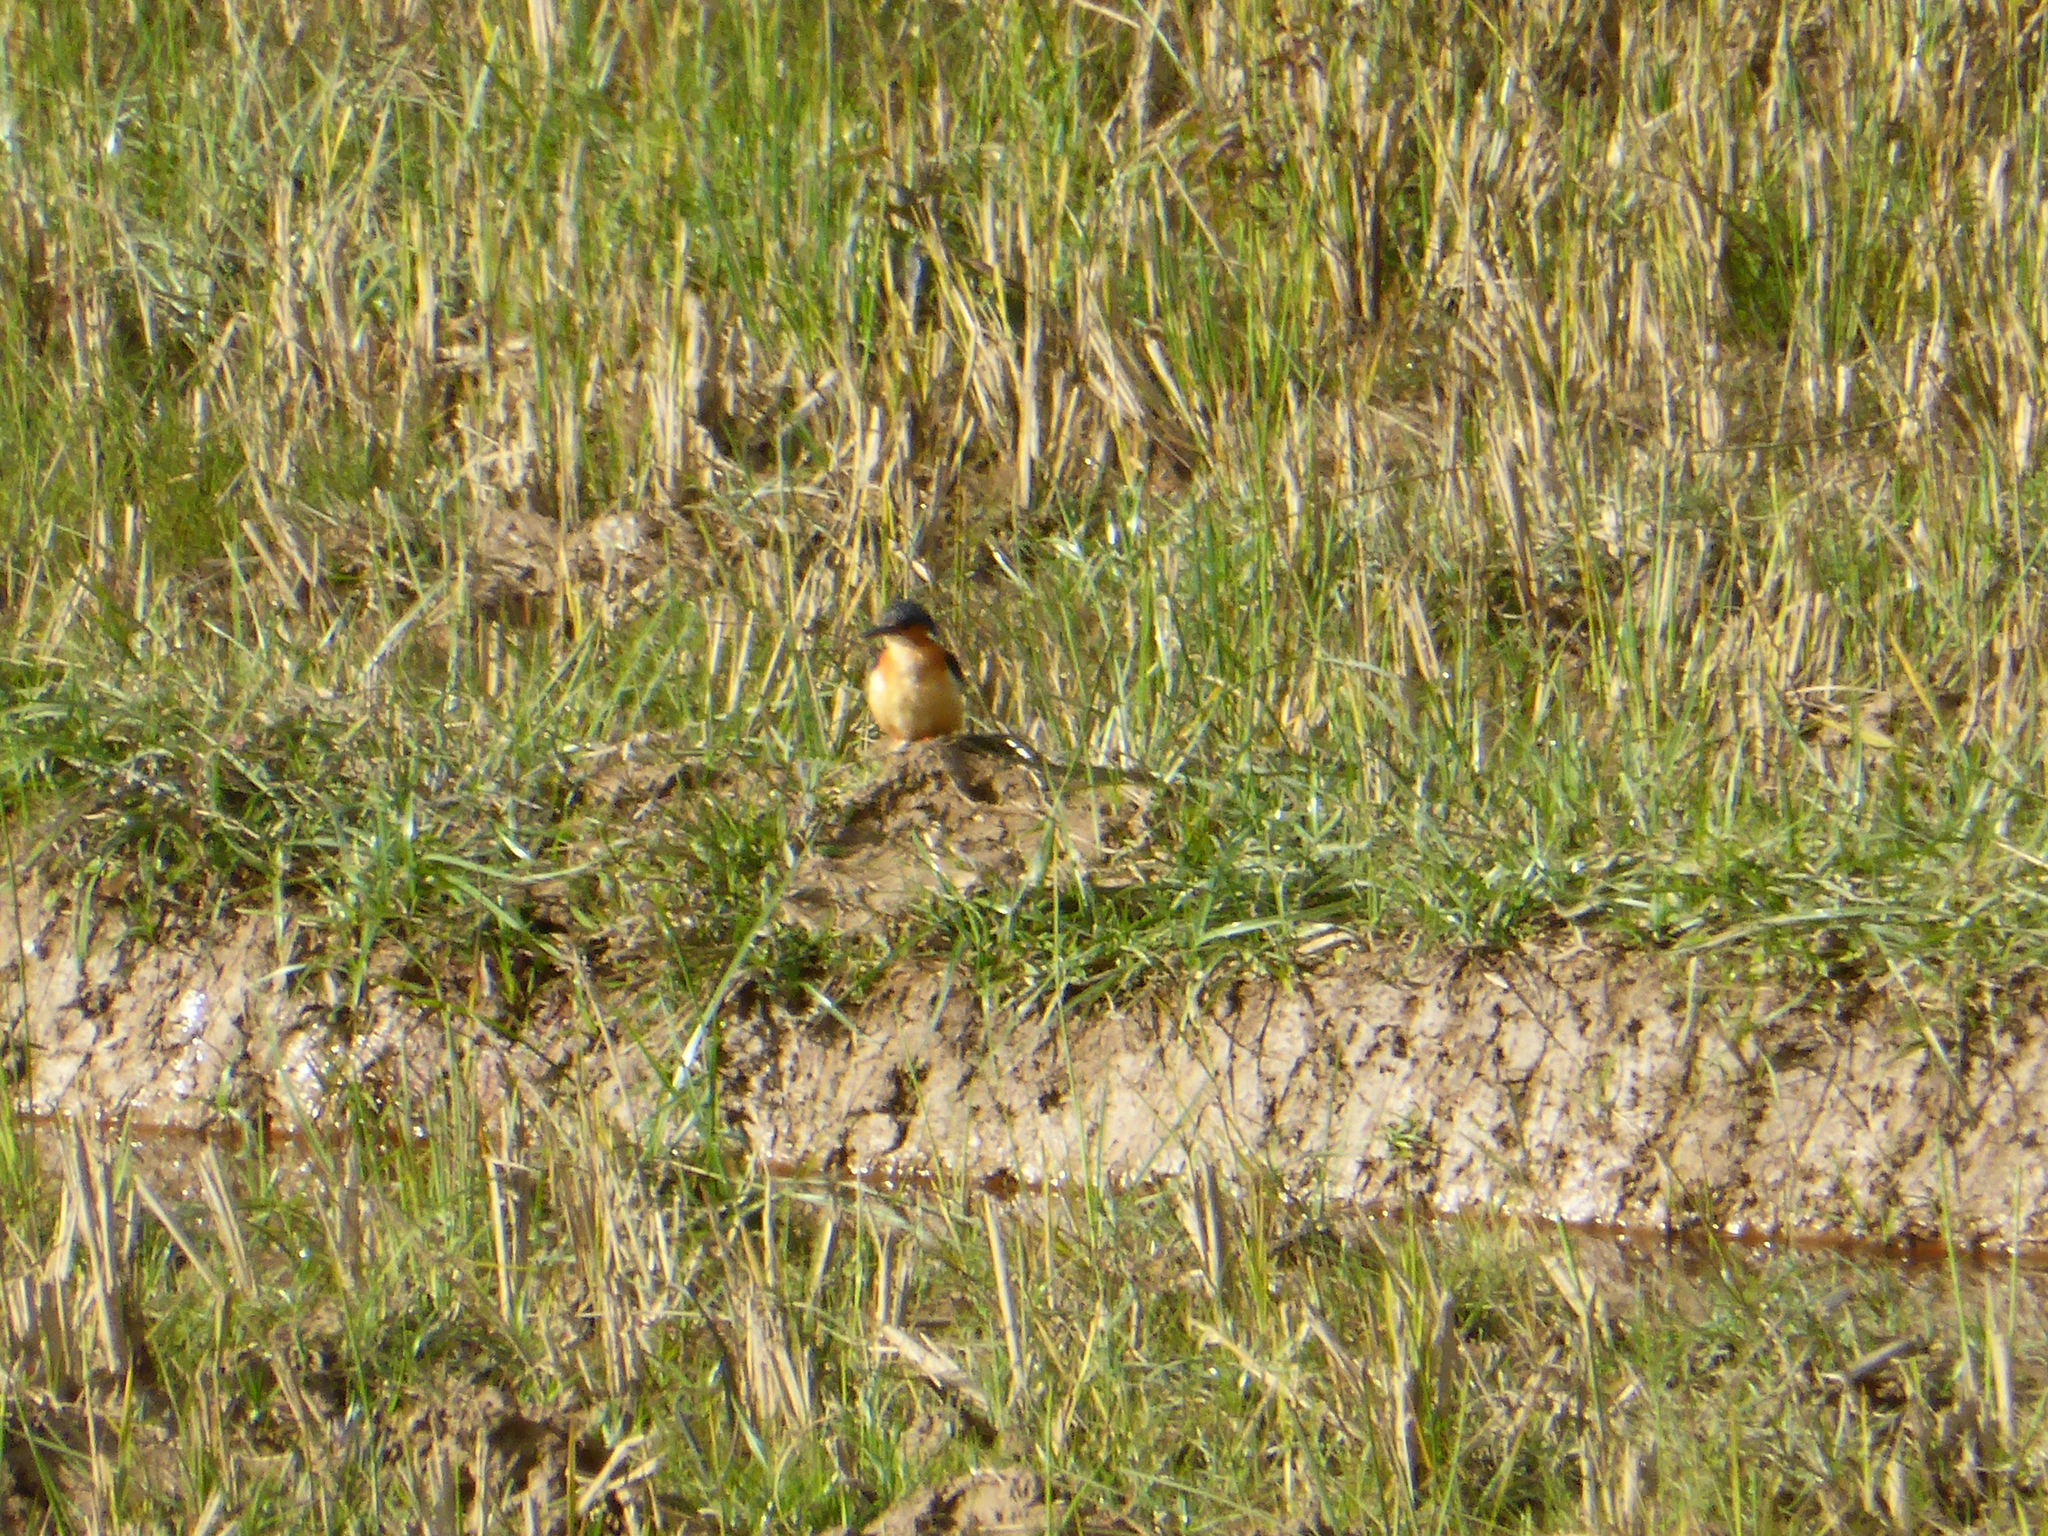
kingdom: Animalia
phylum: Chordata
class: Aves
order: Coraciiformes
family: Alcedinidae
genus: Corythornis
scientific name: Corythornis vintsioides
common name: Malagasy kingfisher
